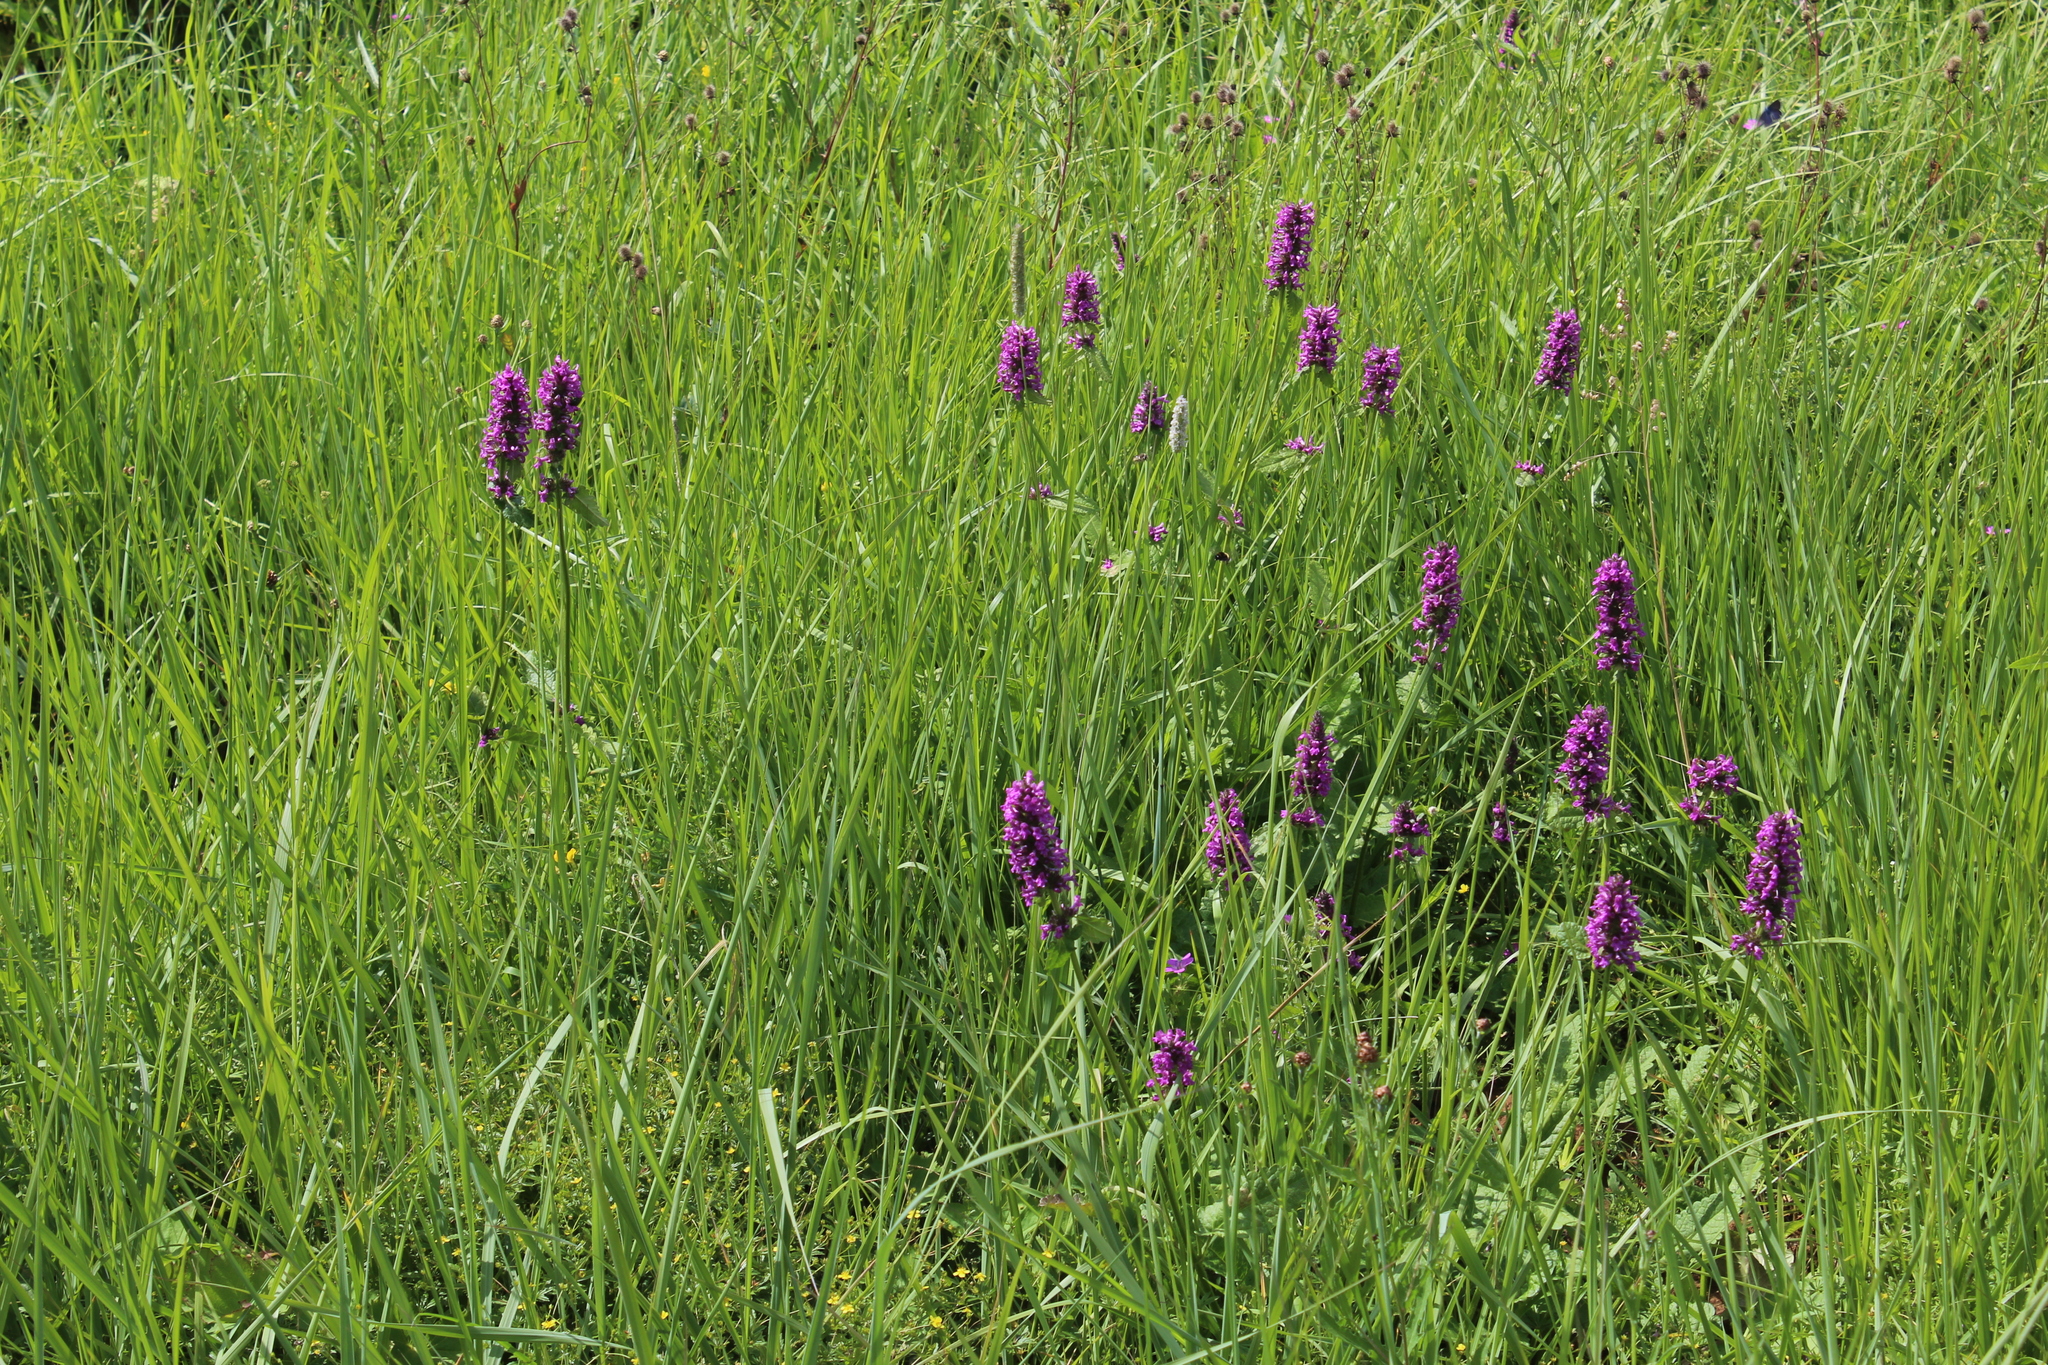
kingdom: Plantae
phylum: Tracheophyta
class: Magnoliopsida
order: Lamiales
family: Lamiaceae
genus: Betonica
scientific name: Betonica officinalis
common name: Bishop's-wort
